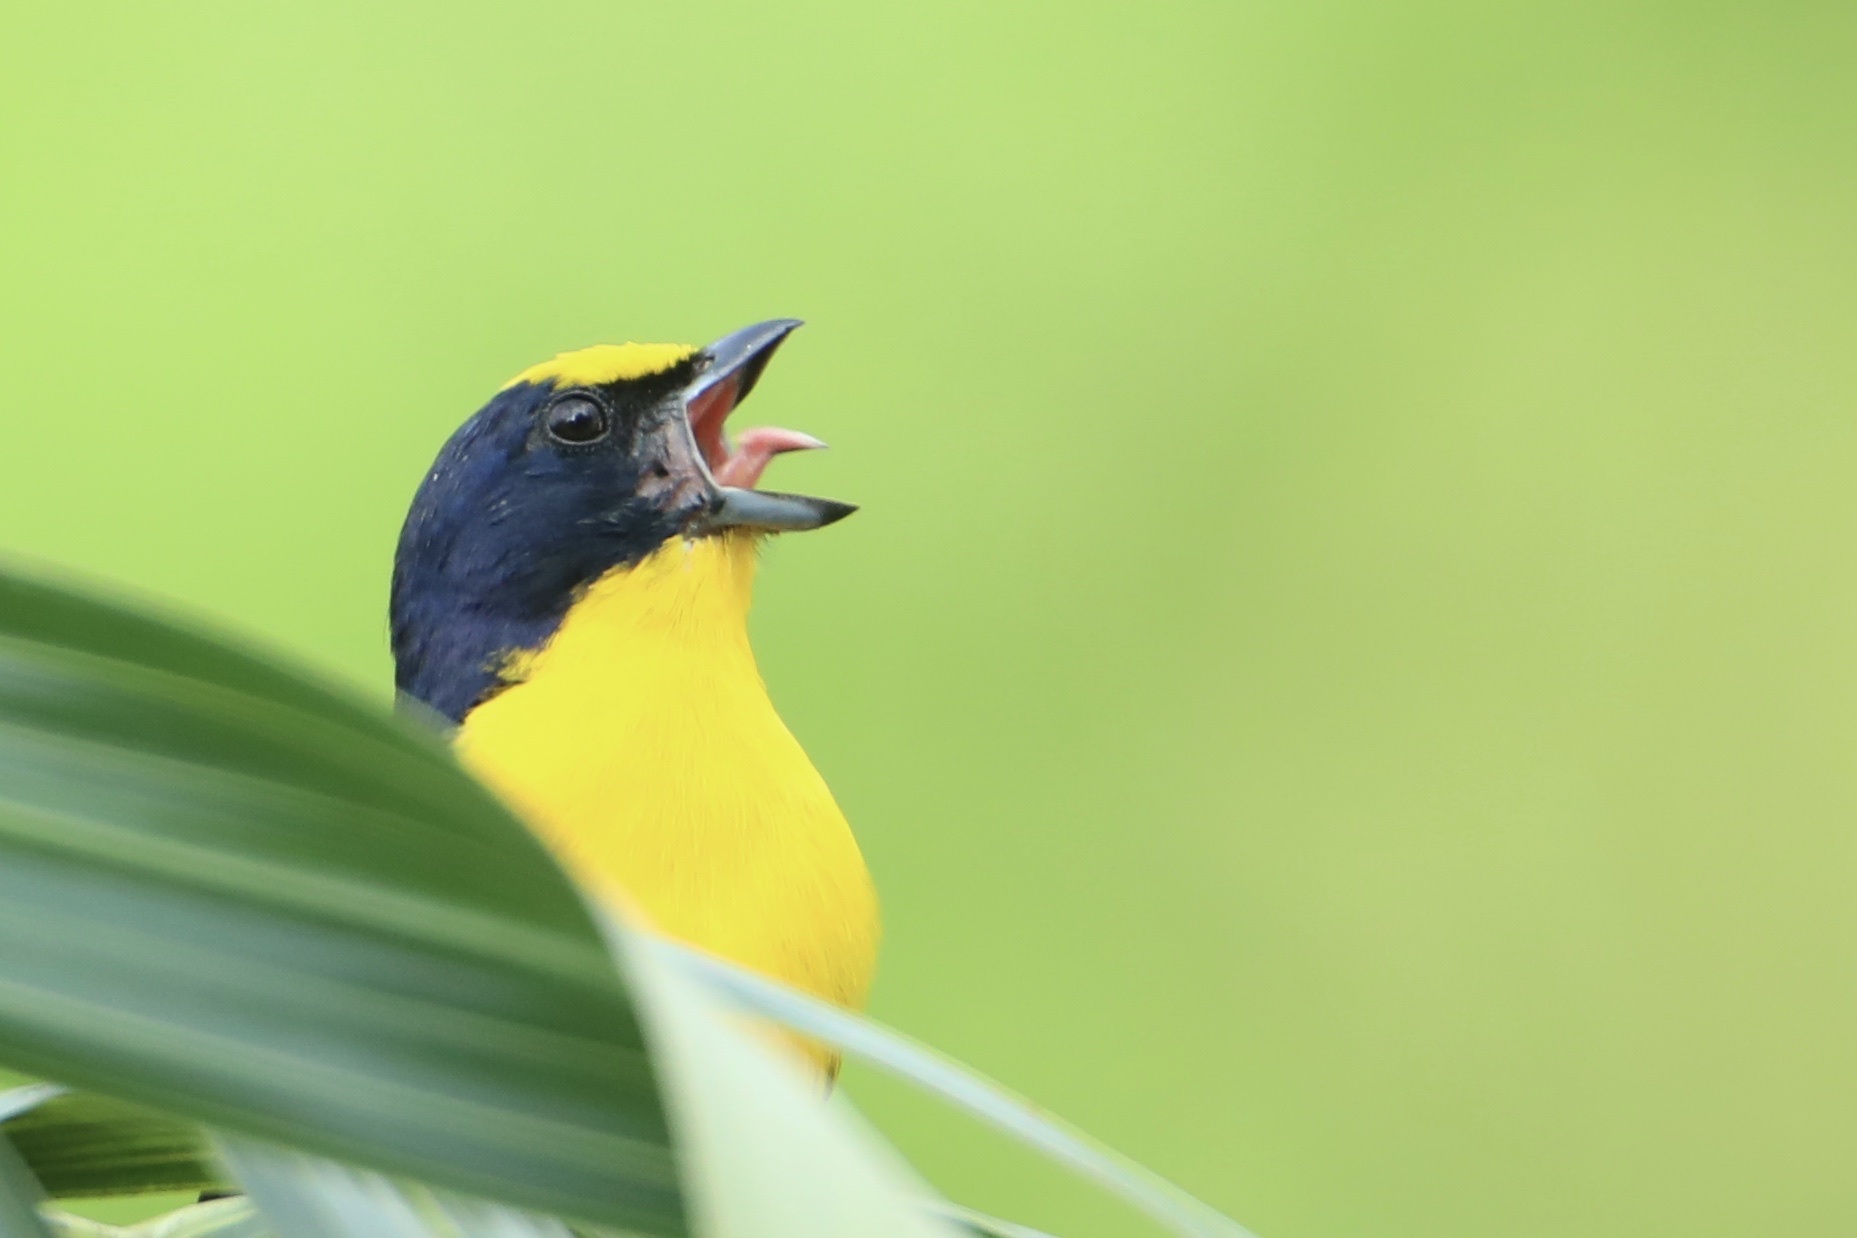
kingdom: Animalia
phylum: Chordata
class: Aves
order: Passeriformes
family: Fringillidae
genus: Euphonia
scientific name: Euphonia laniirostris
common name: Thick-billed euphonia
